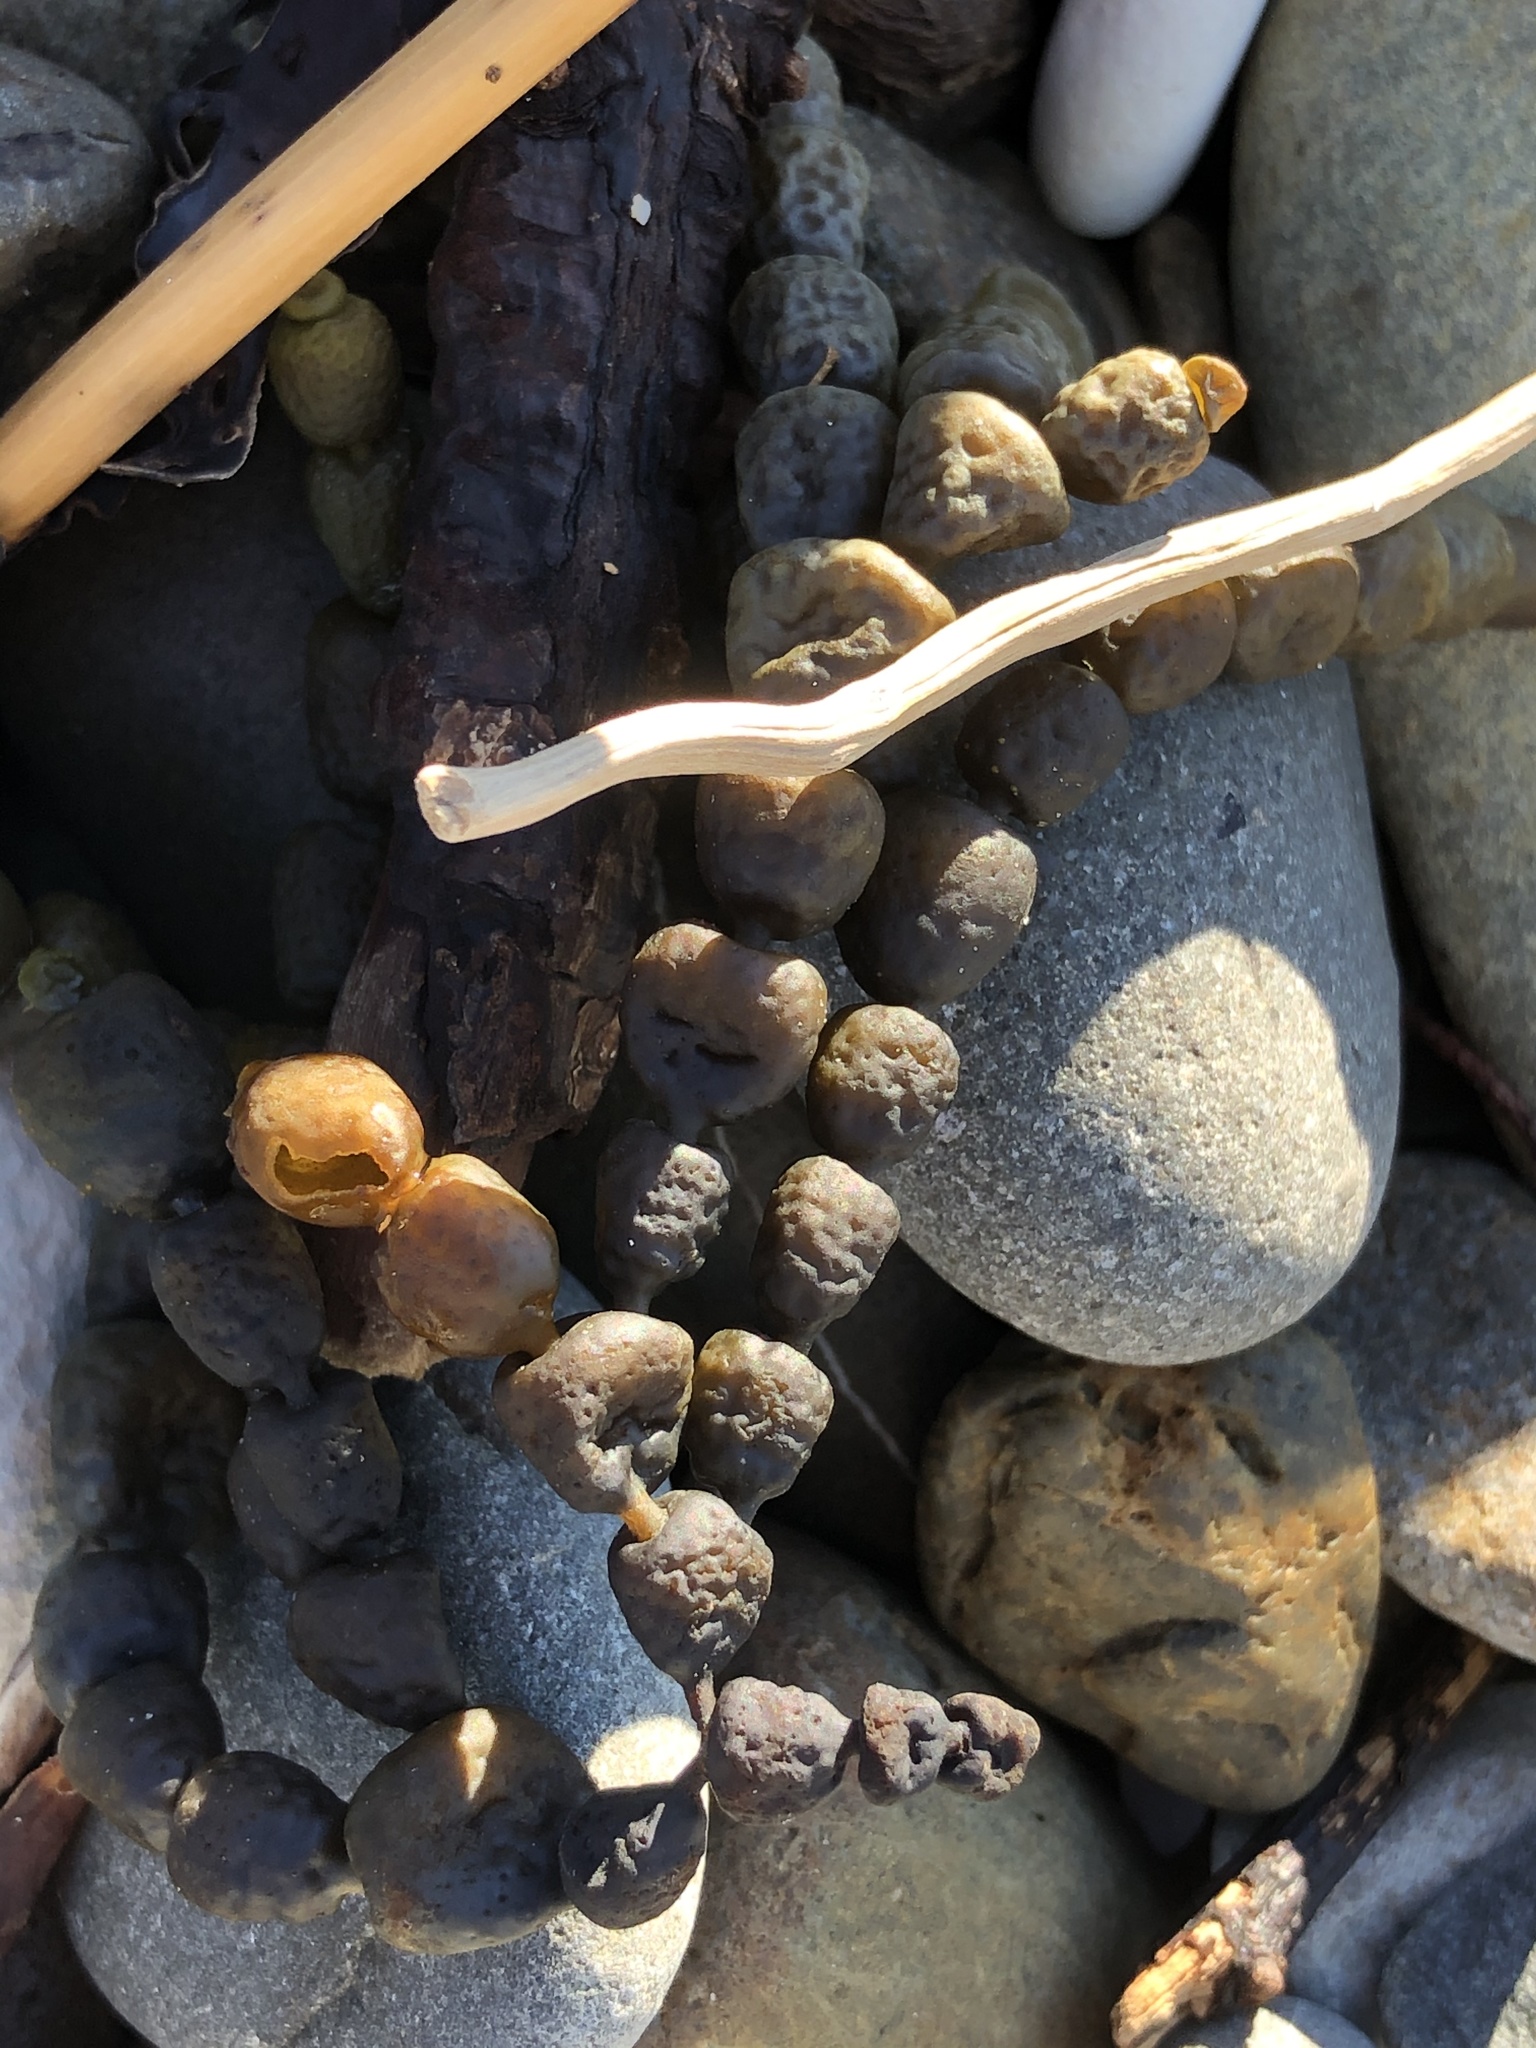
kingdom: Chromista
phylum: Ochrophyta
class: Phaeophyceae
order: Fucales
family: Hormosiraceae
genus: Hormosira
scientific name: Hormosira banksii
